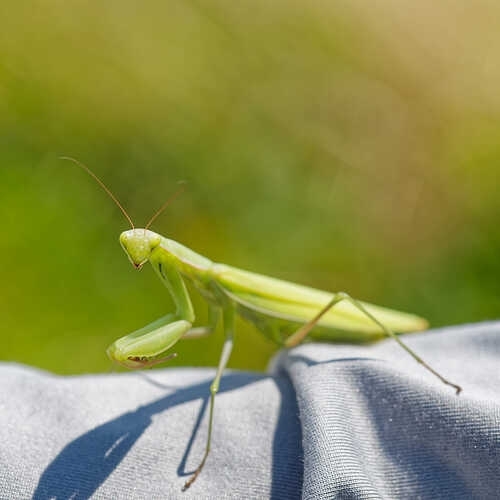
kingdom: Animalia
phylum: Arthropoda
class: Insecta
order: Mantodea
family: Mantidae
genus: Mantis
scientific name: Mantis religiosa
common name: Praying mantis
